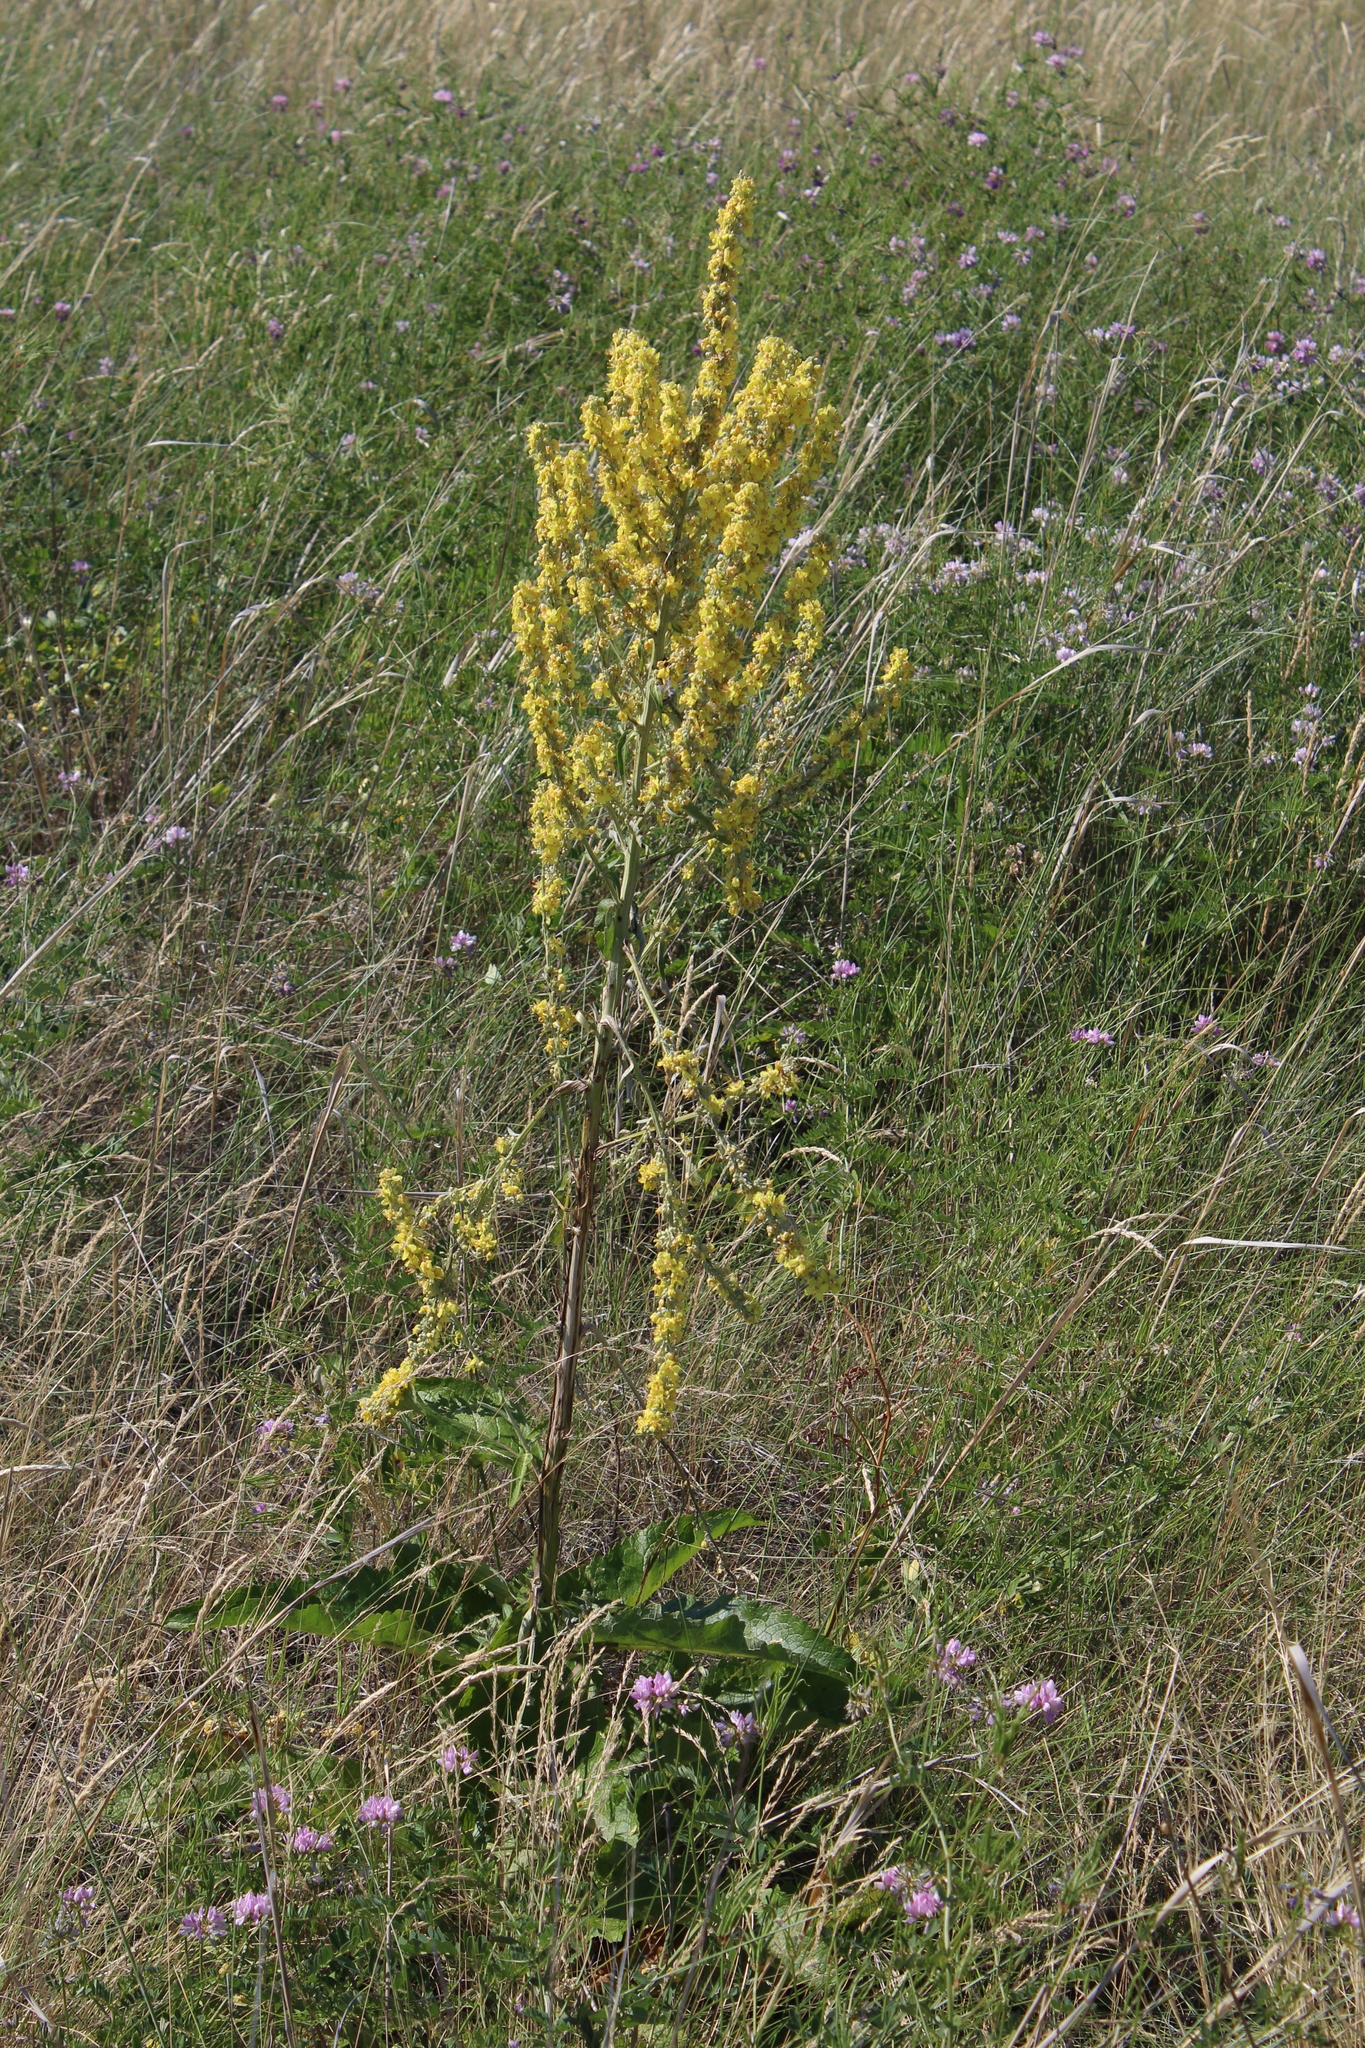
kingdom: Plantae
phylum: Tracheophyta
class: Magnoliopsida
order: Lamiales
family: Scrophulariaceae
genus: Verbascum
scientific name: Verbascum lychnitis
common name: White mullein
